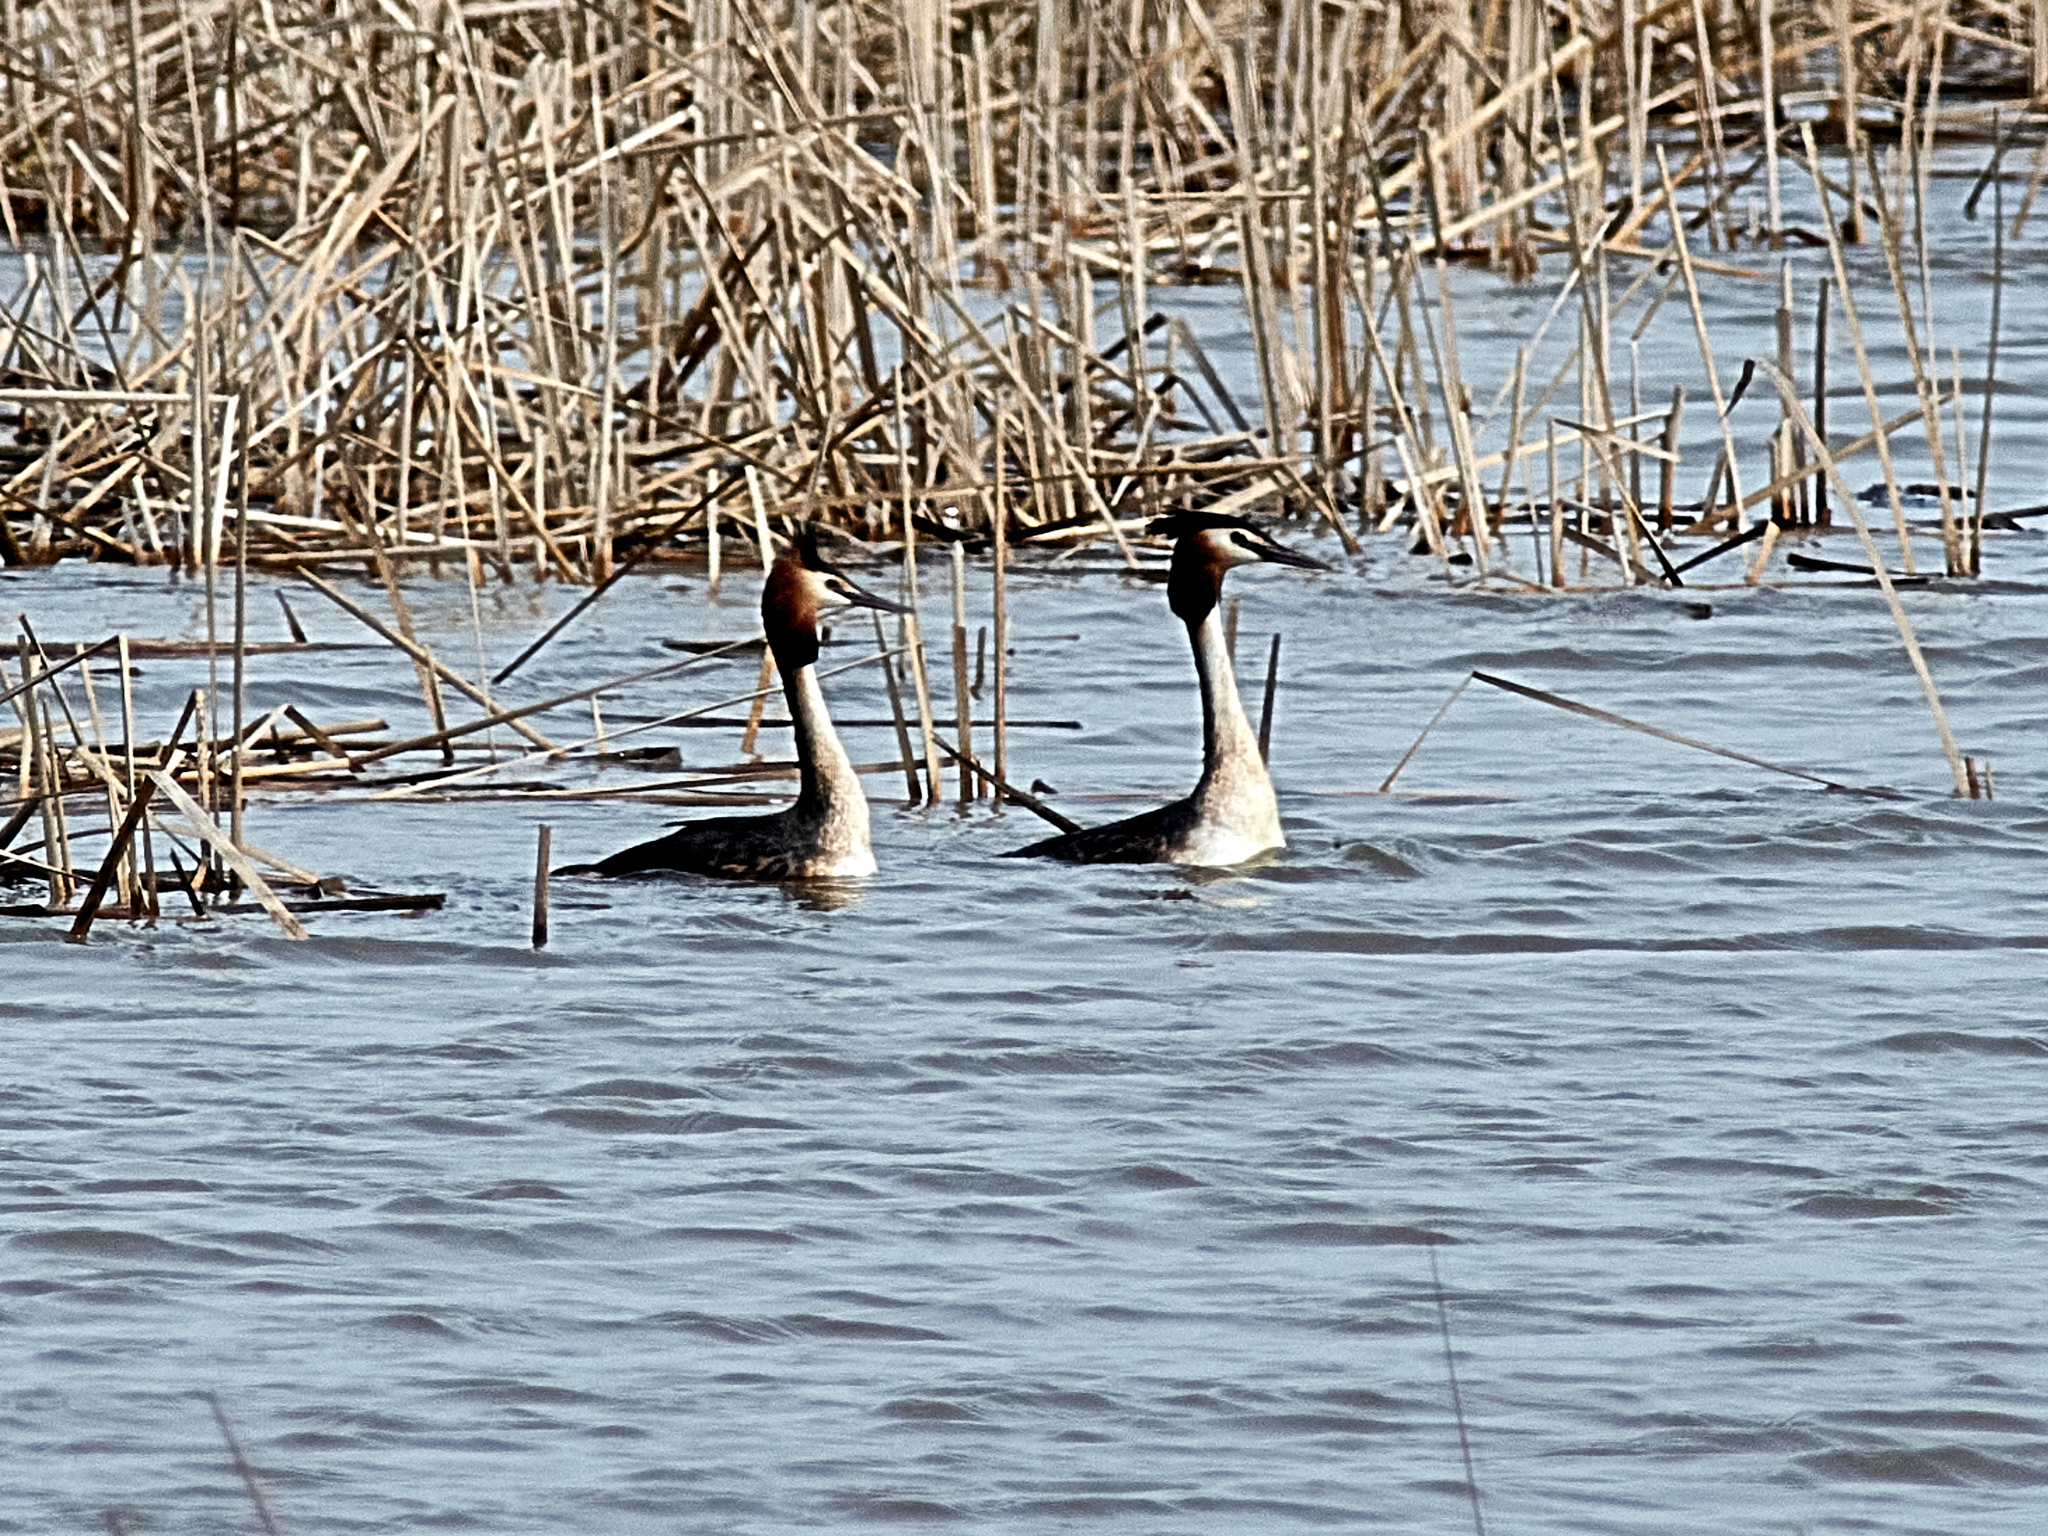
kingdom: Animalia
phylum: Chordata
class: Aves
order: Podicipediformes
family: Podicipedidae
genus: Podiceps
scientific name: Podiceps cristatus
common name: Great crested grebe
